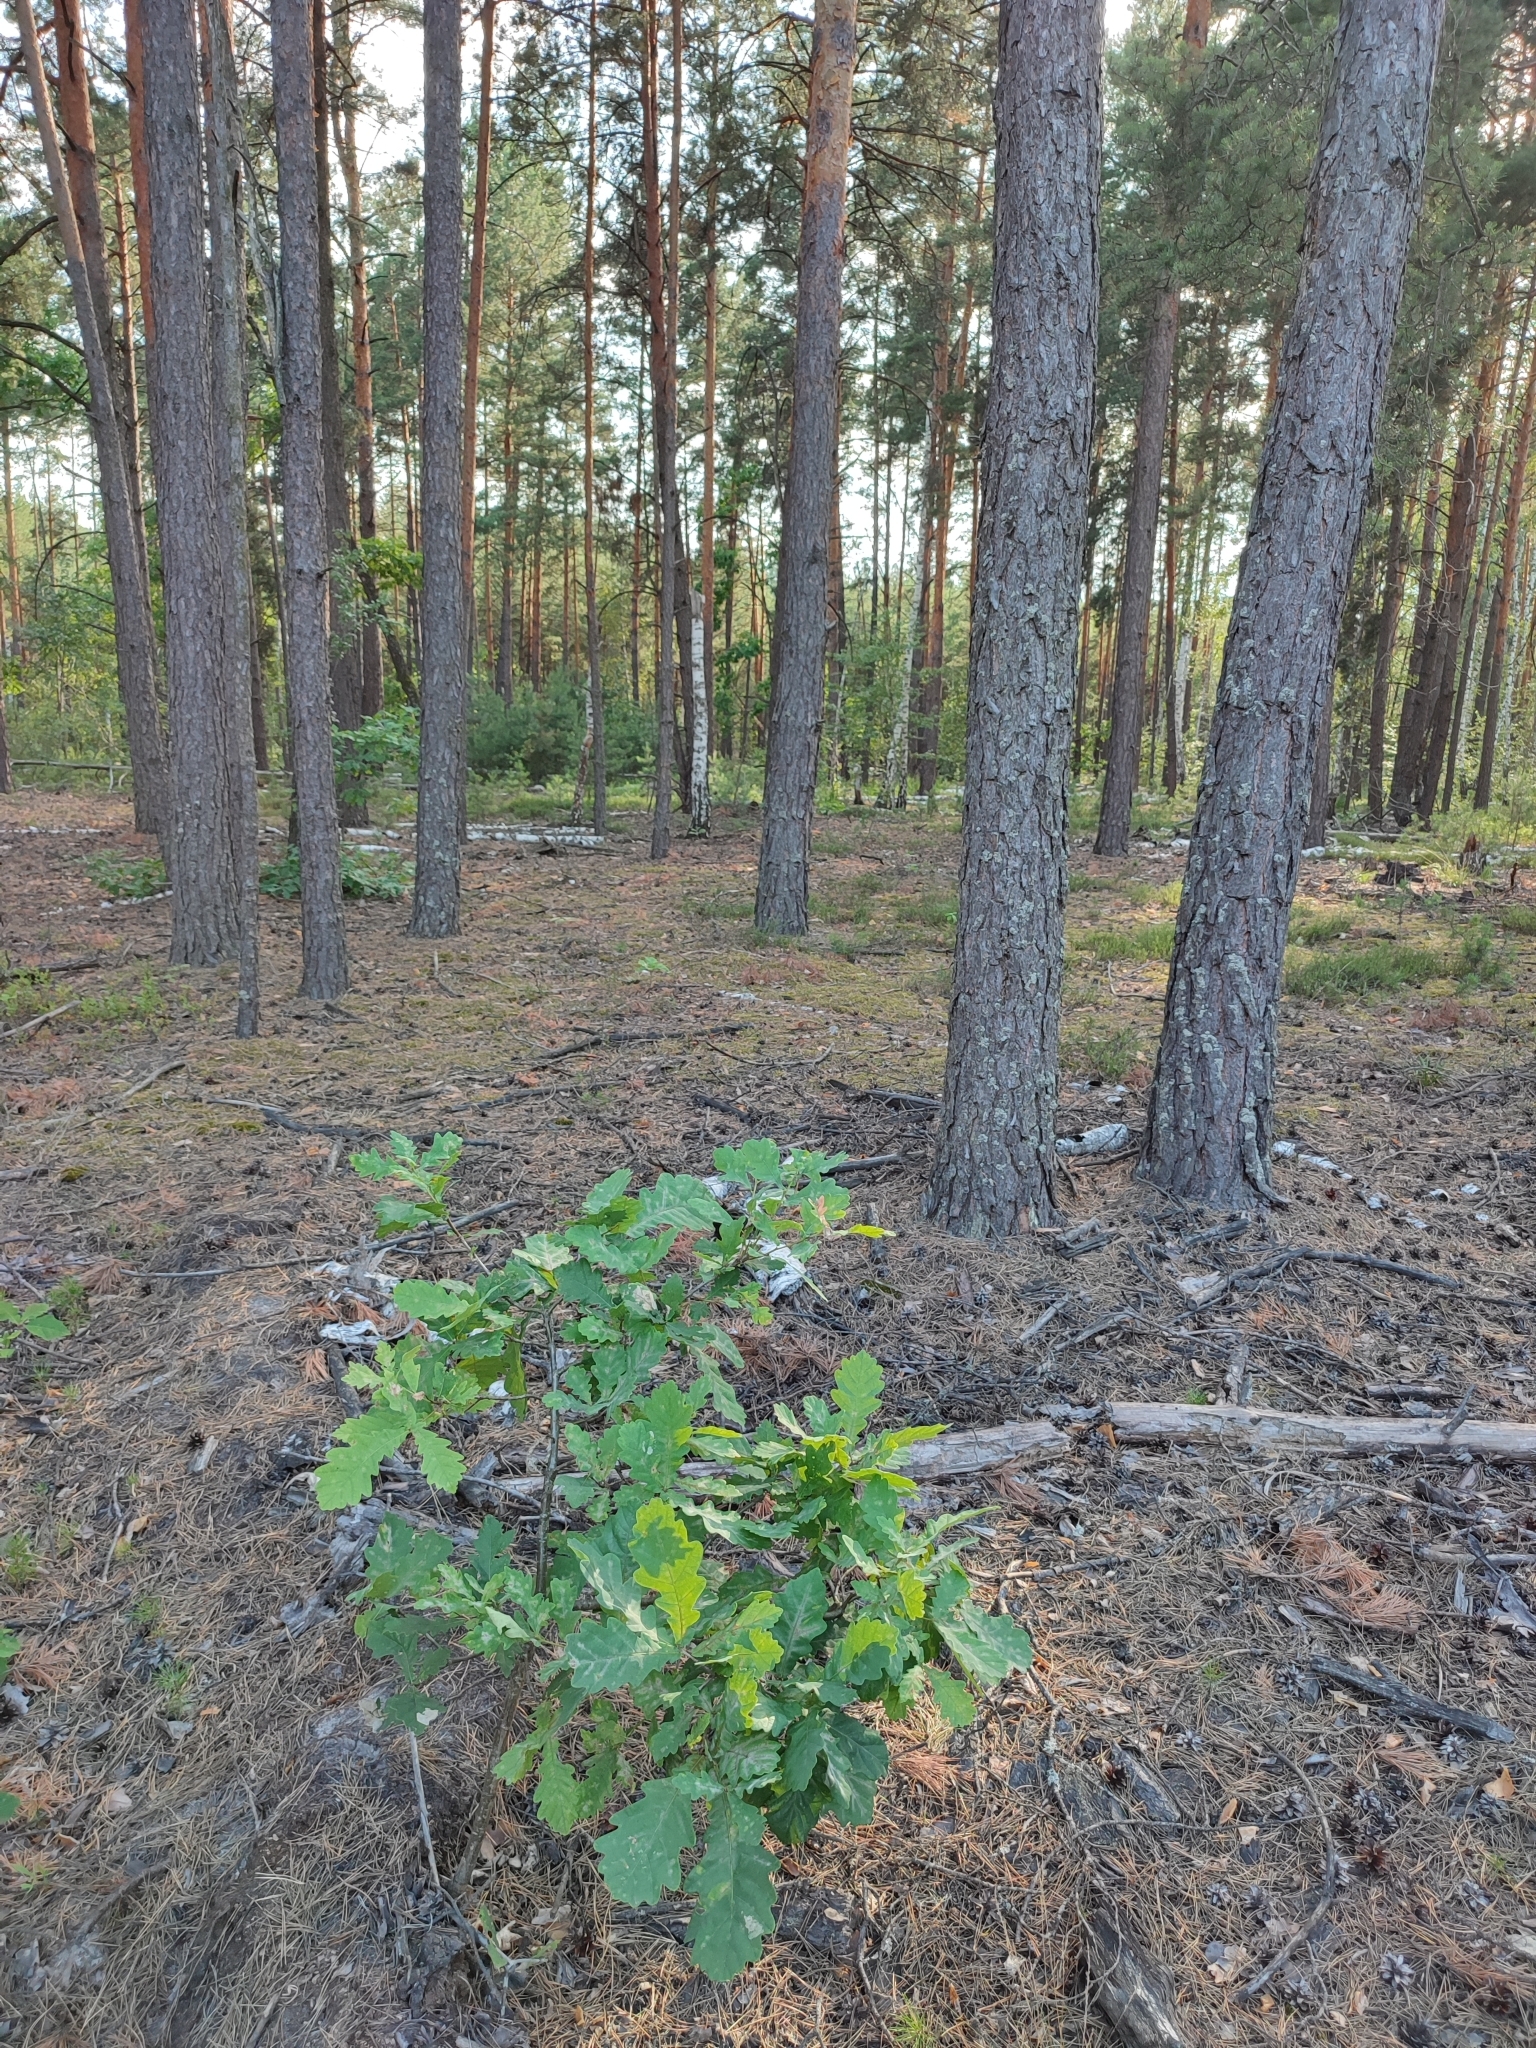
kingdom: Plantae
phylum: Tracheophyta
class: Magnoliopsida
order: Fagales
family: Fagaceae
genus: Quercus
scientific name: Quercus robur
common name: Pedunculate oak
